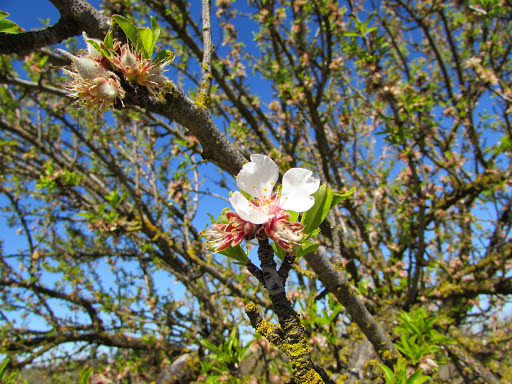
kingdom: Plantae
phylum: Tracheophyta
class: Magnoliopsida
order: Rosales
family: Rosaceae
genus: Prunus
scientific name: Prunus amygdalus
